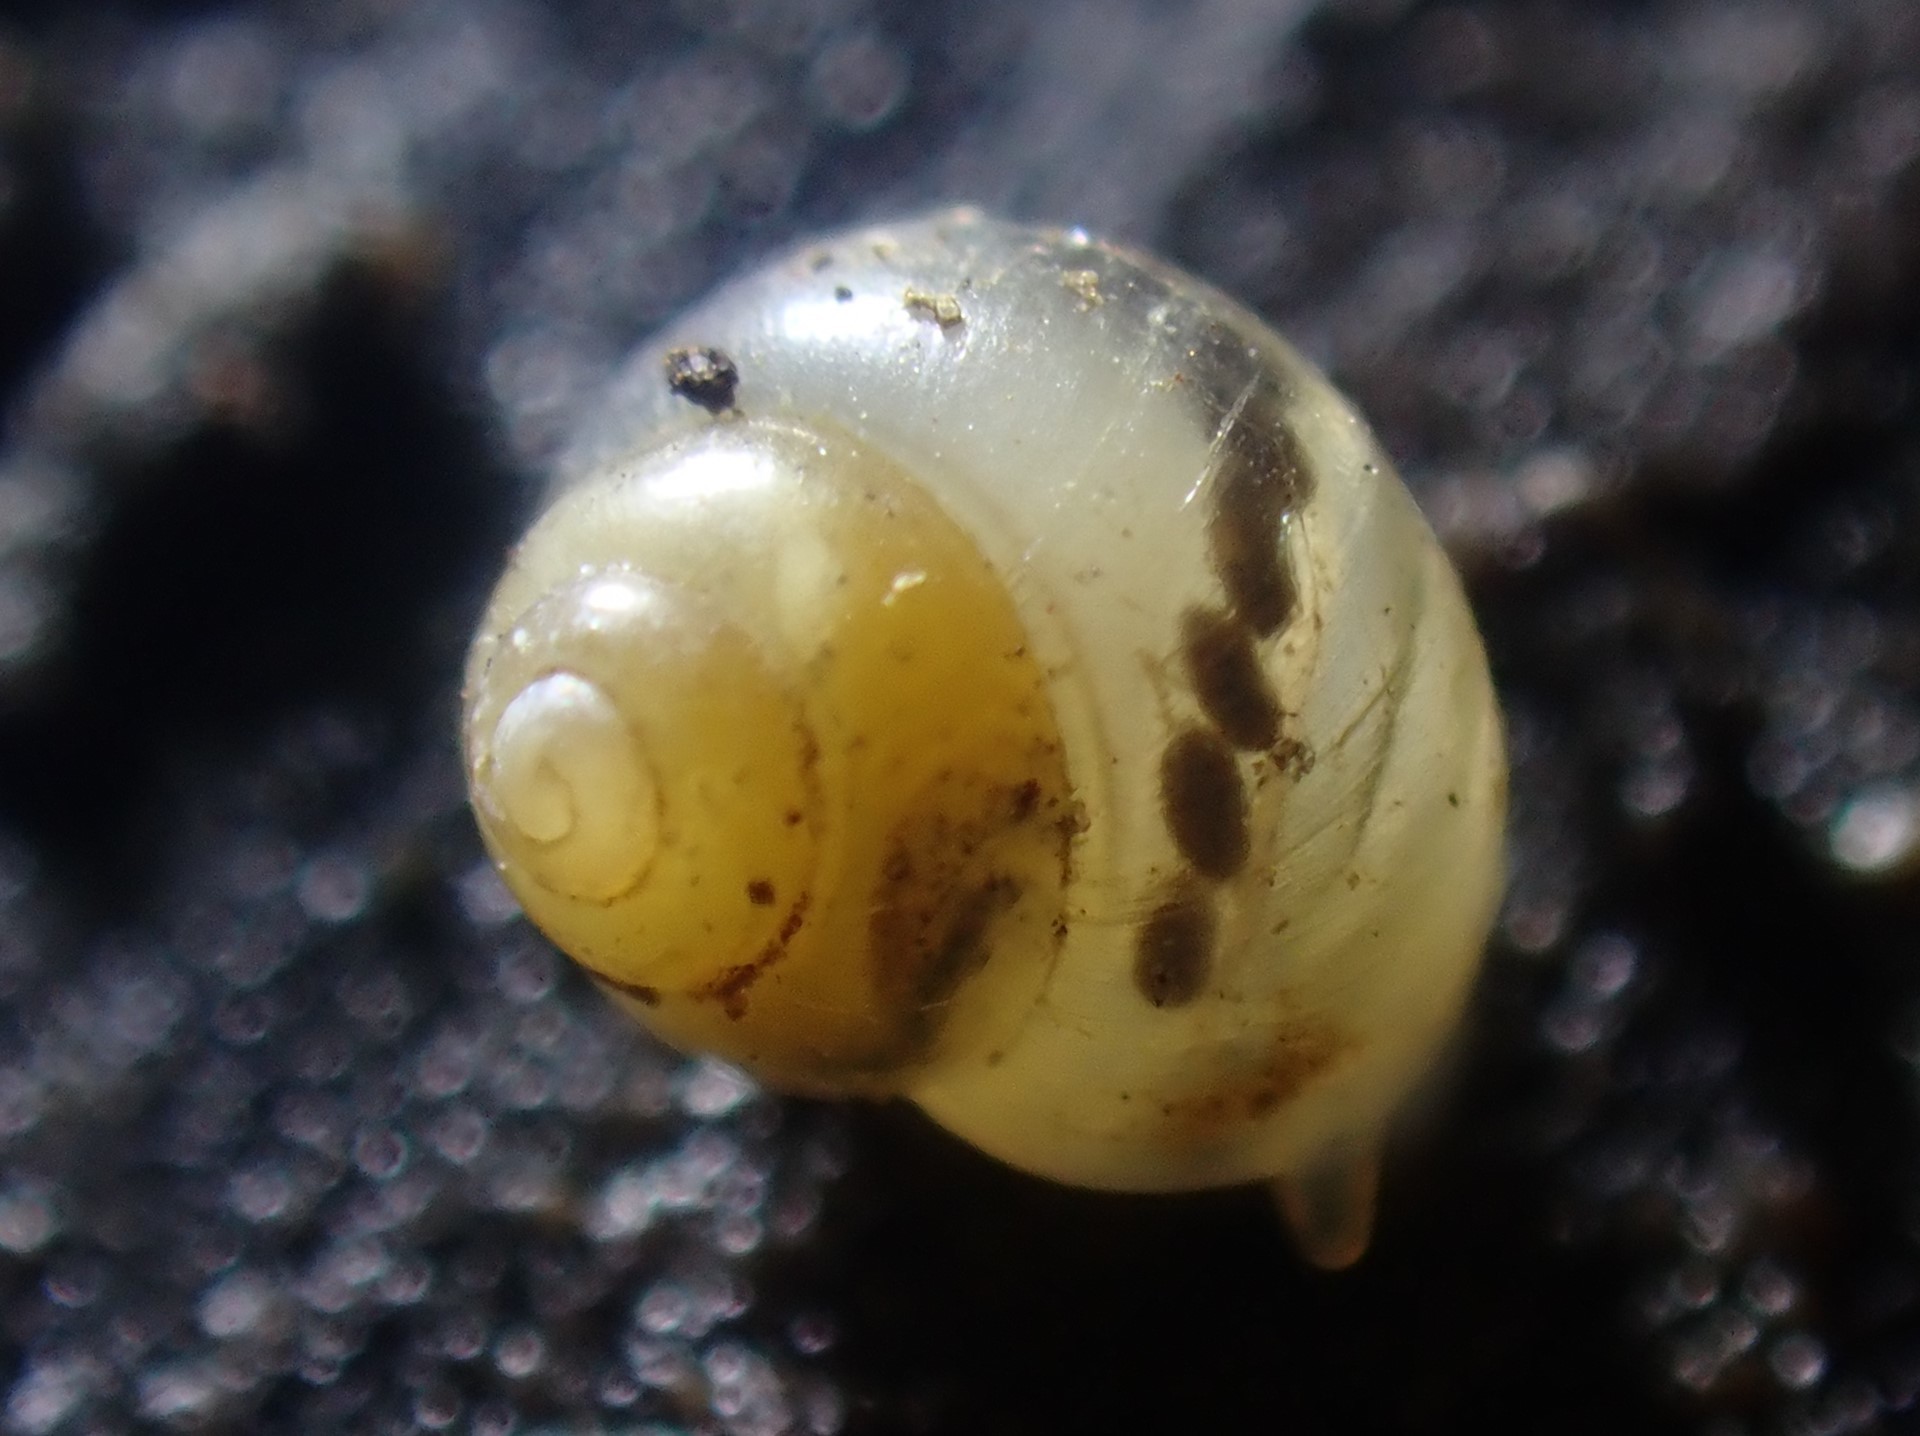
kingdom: Animalia
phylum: Mollusca
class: Gastropoda
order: Littorinimorpha
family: Assimineidae
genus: Suterilla
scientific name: Suterilla neozelanica
